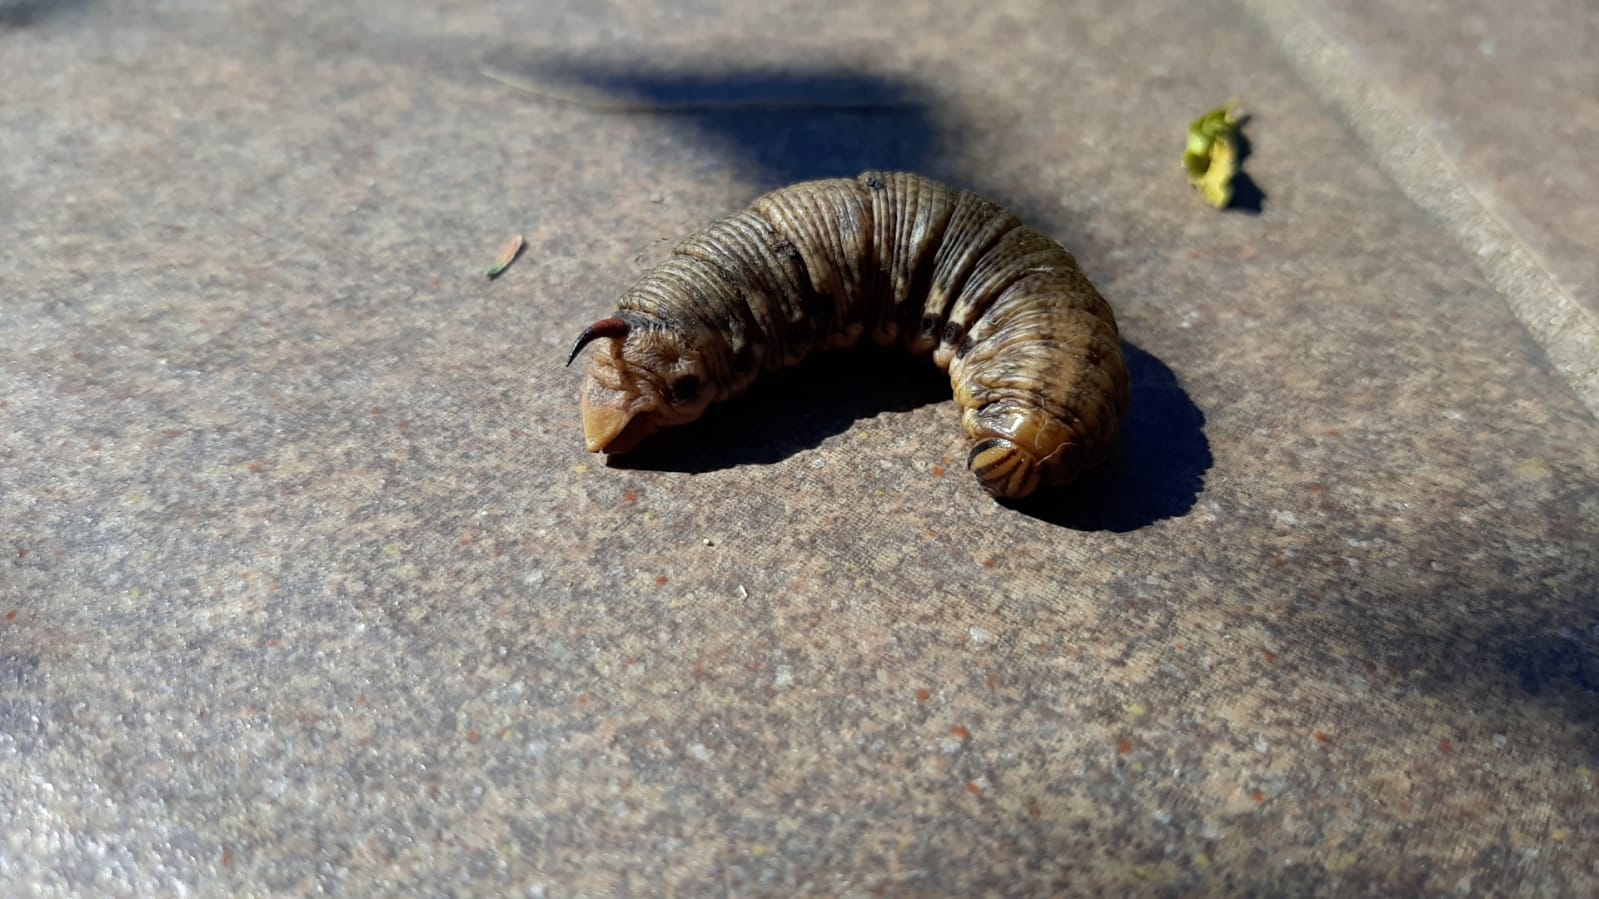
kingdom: Animalia
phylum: Arthropoda
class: Insecta
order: Lepidoptera
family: Sphingidae
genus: Agrius
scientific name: Agrius convolvuli
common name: Convolvulus hawkmoth
